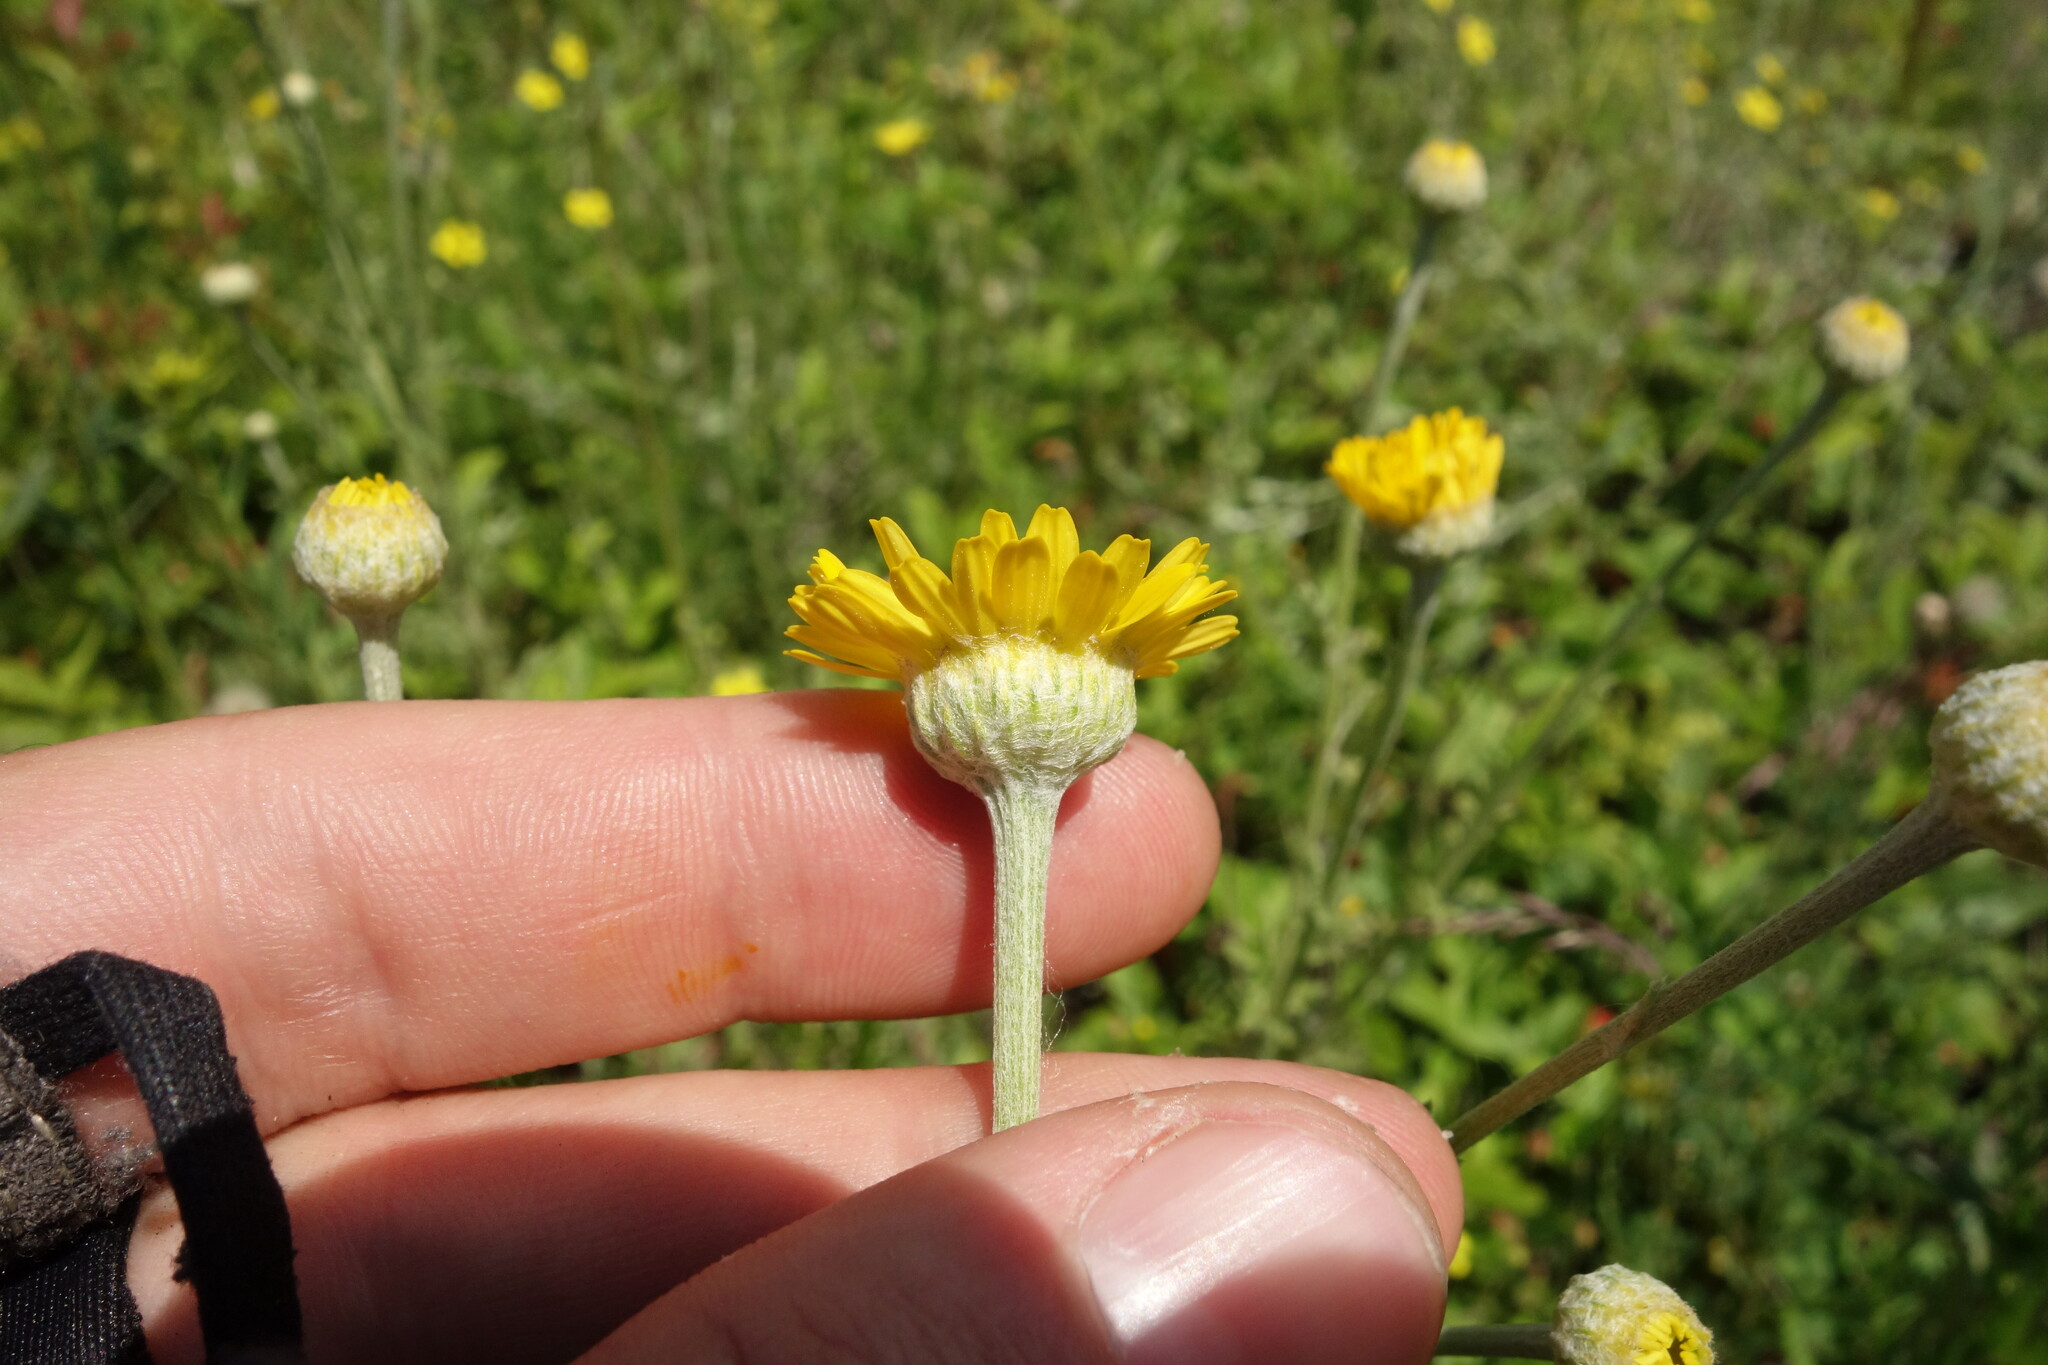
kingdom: Plantae
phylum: Tracheophyta
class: Magnoliopsida
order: Asterales
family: Asteraceae
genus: Cota
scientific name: Cota tinctoria
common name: Golden chamomile
